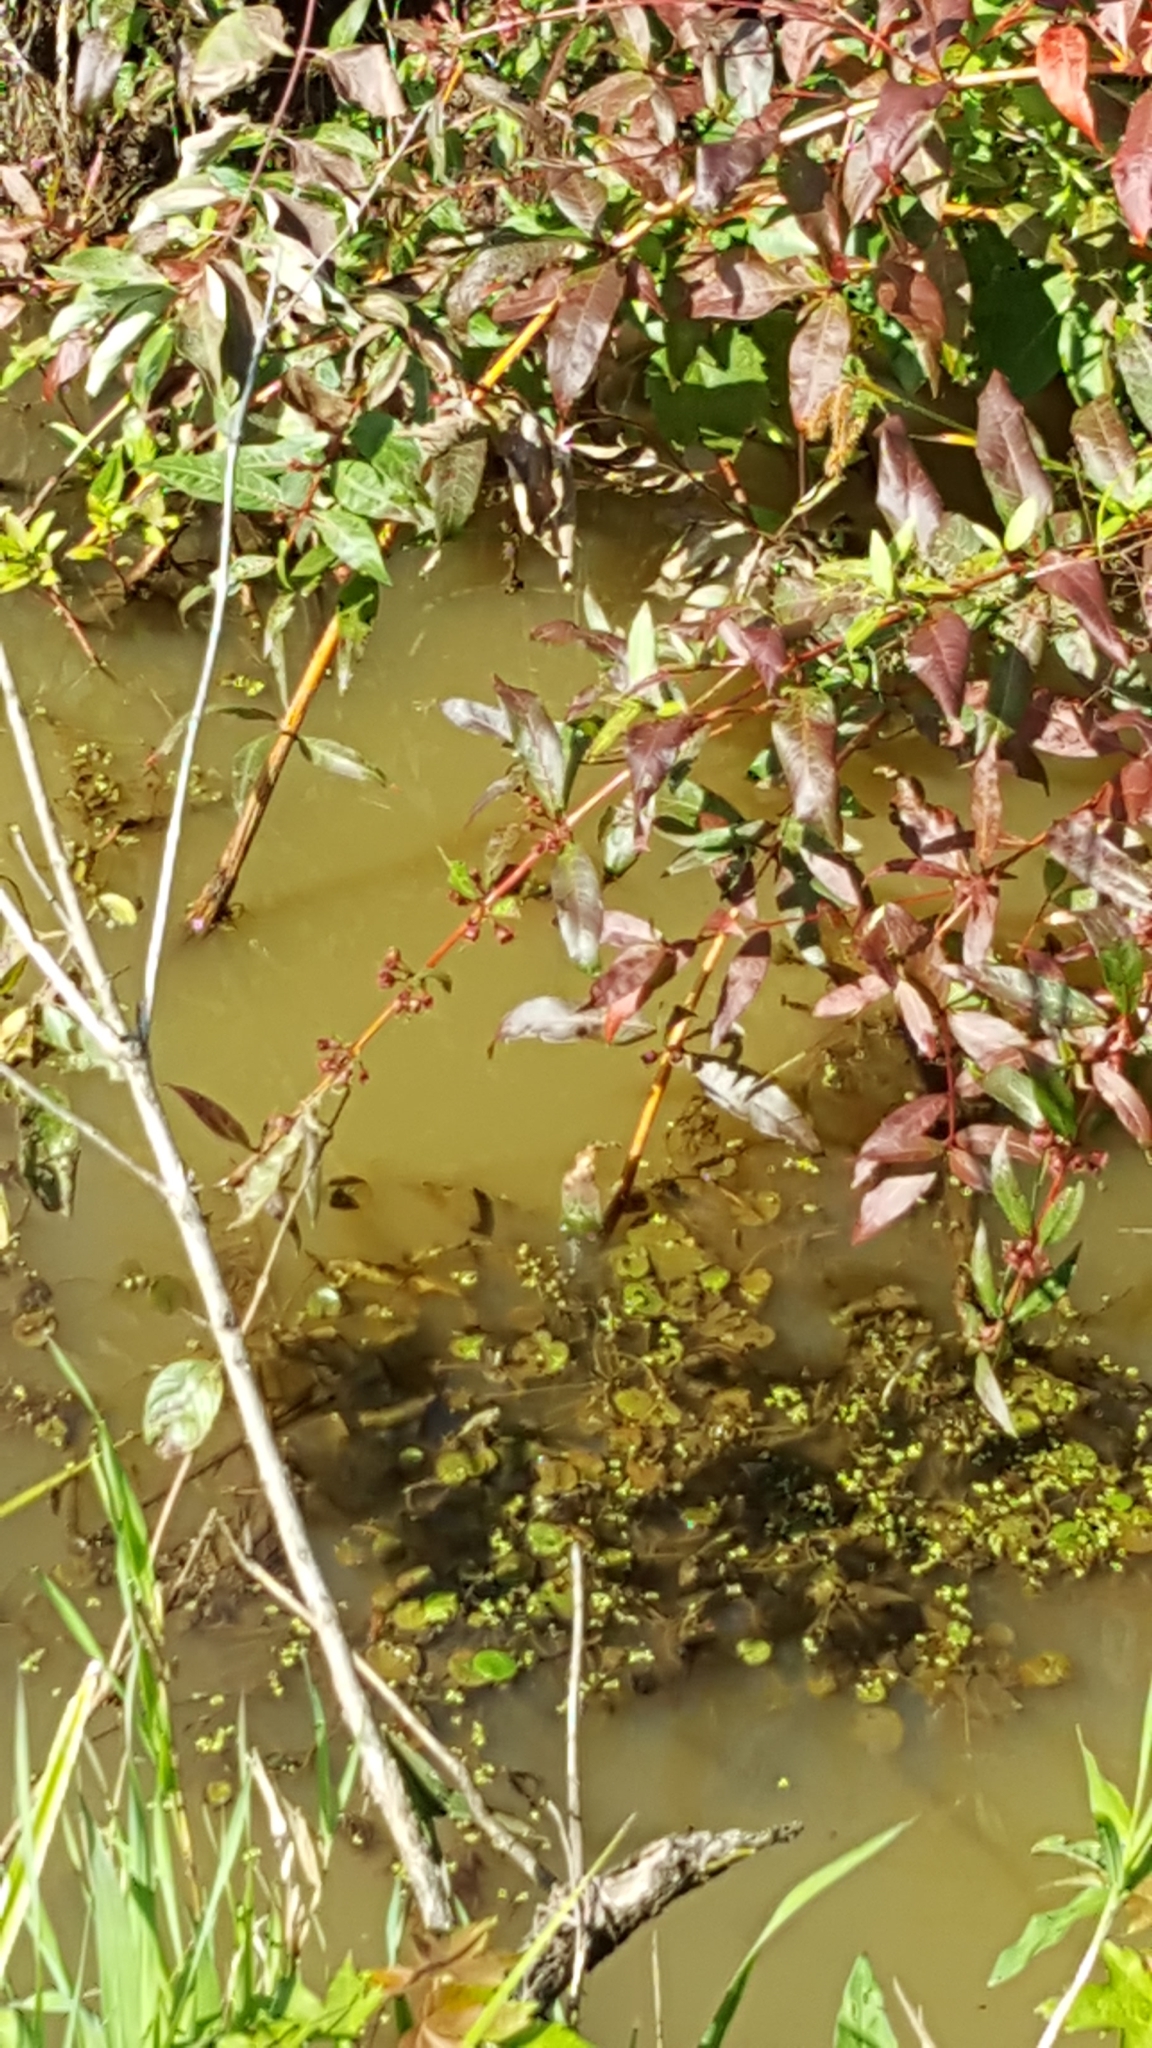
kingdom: Plantae
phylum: Tracheophyta
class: Magnoliopsida
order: Myrtales
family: Lythraceae
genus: Decodon
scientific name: Decodon verticillatus
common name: Hairy swamp loosestrife
